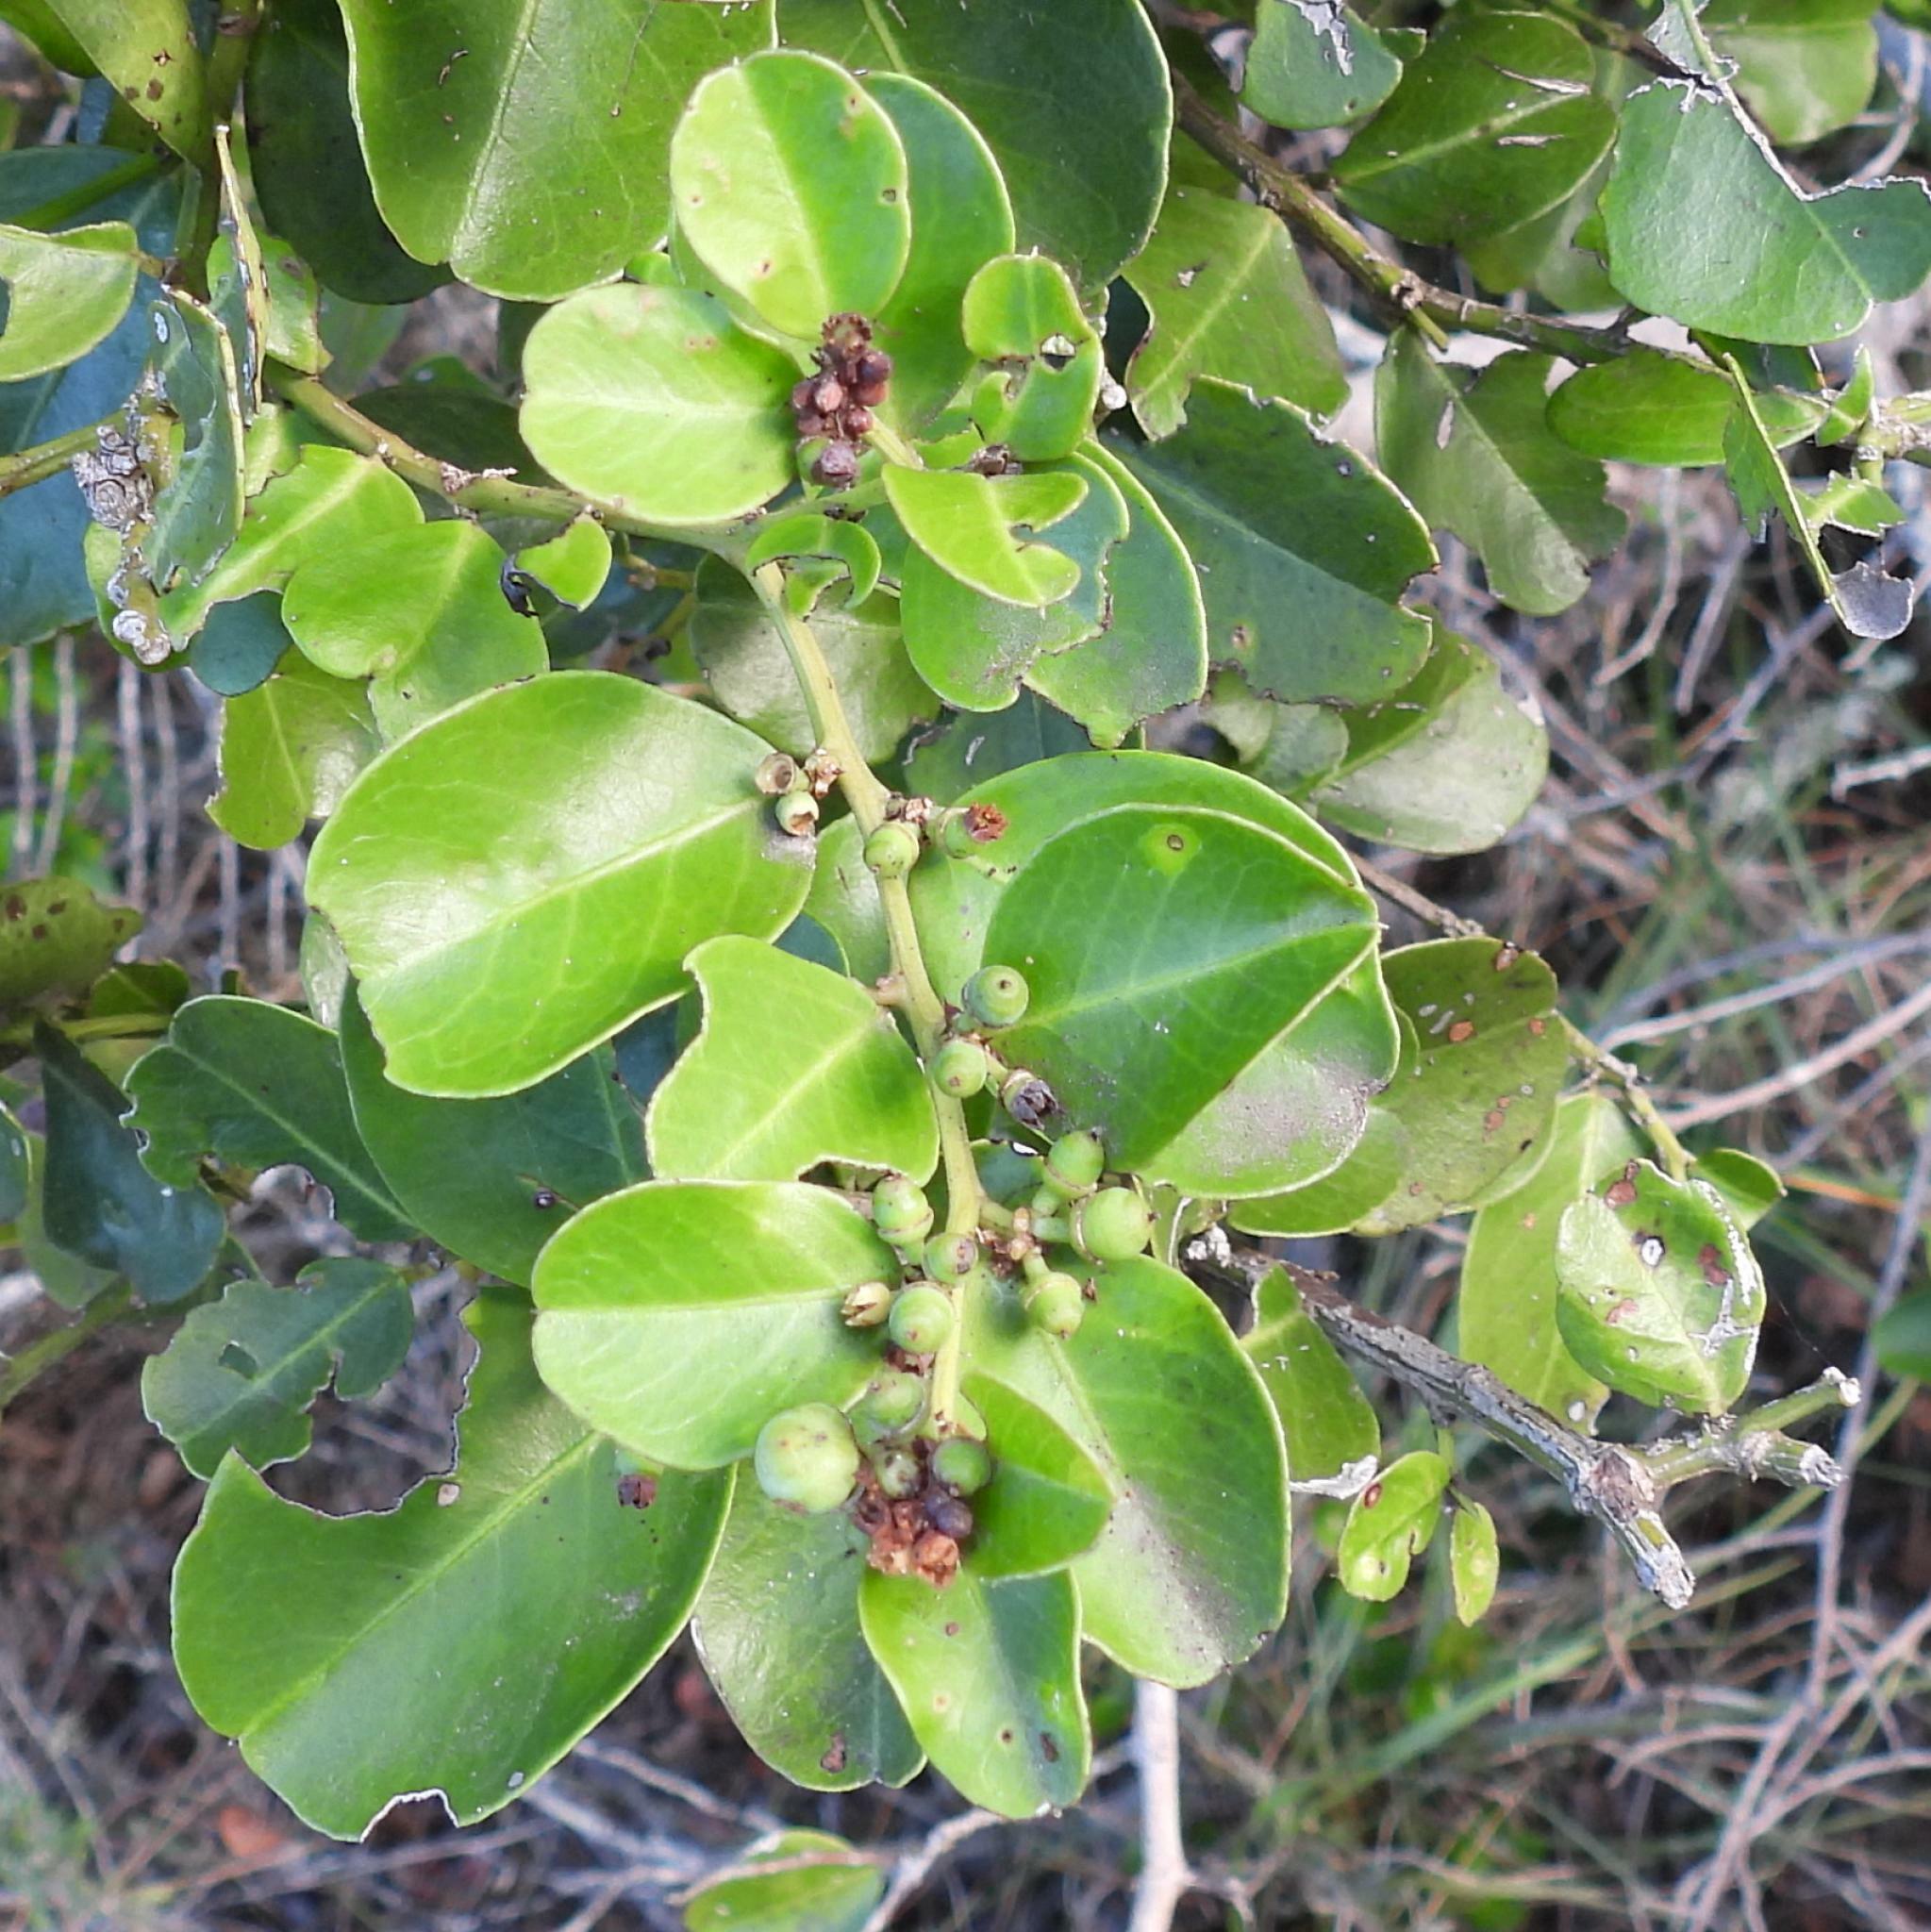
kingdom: Plantae
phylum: Tracheophyta
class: Magnoliopsida
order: Rosales
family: Rhamnaceae
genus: Scutia
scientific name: Scutia myrtina
